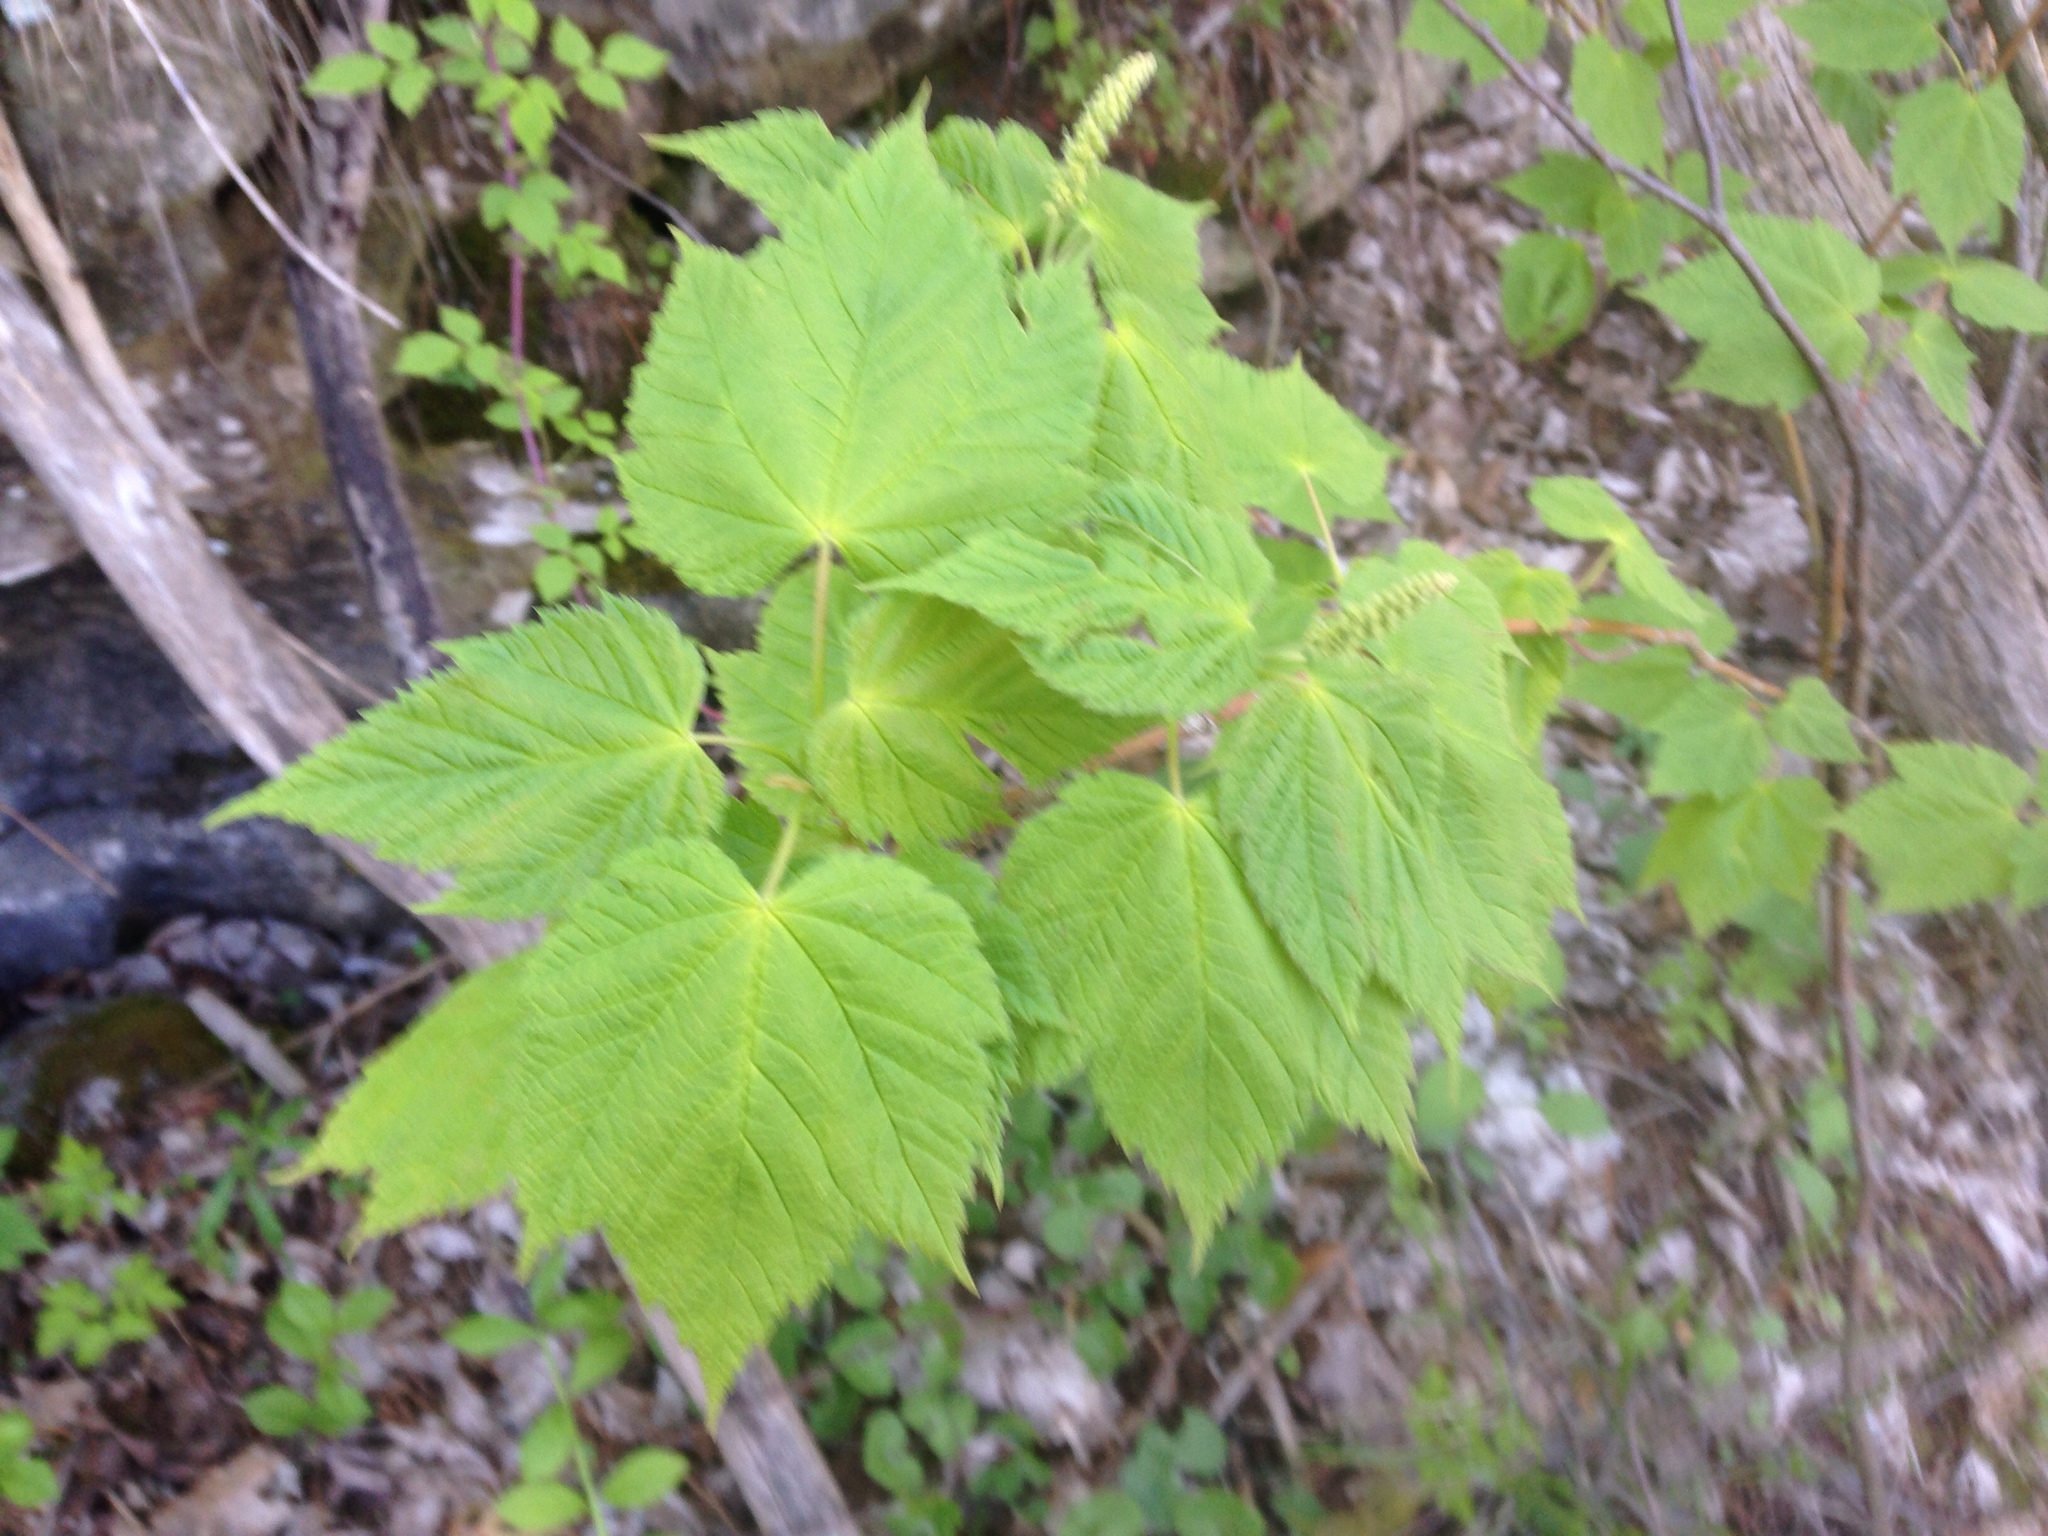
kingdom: Plantae
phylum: Tracheophyta
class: Magnoliopsida
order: Sapindales
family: Sapindaceae
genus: Acer
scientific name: Acer spicatum
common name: Mountain maple
